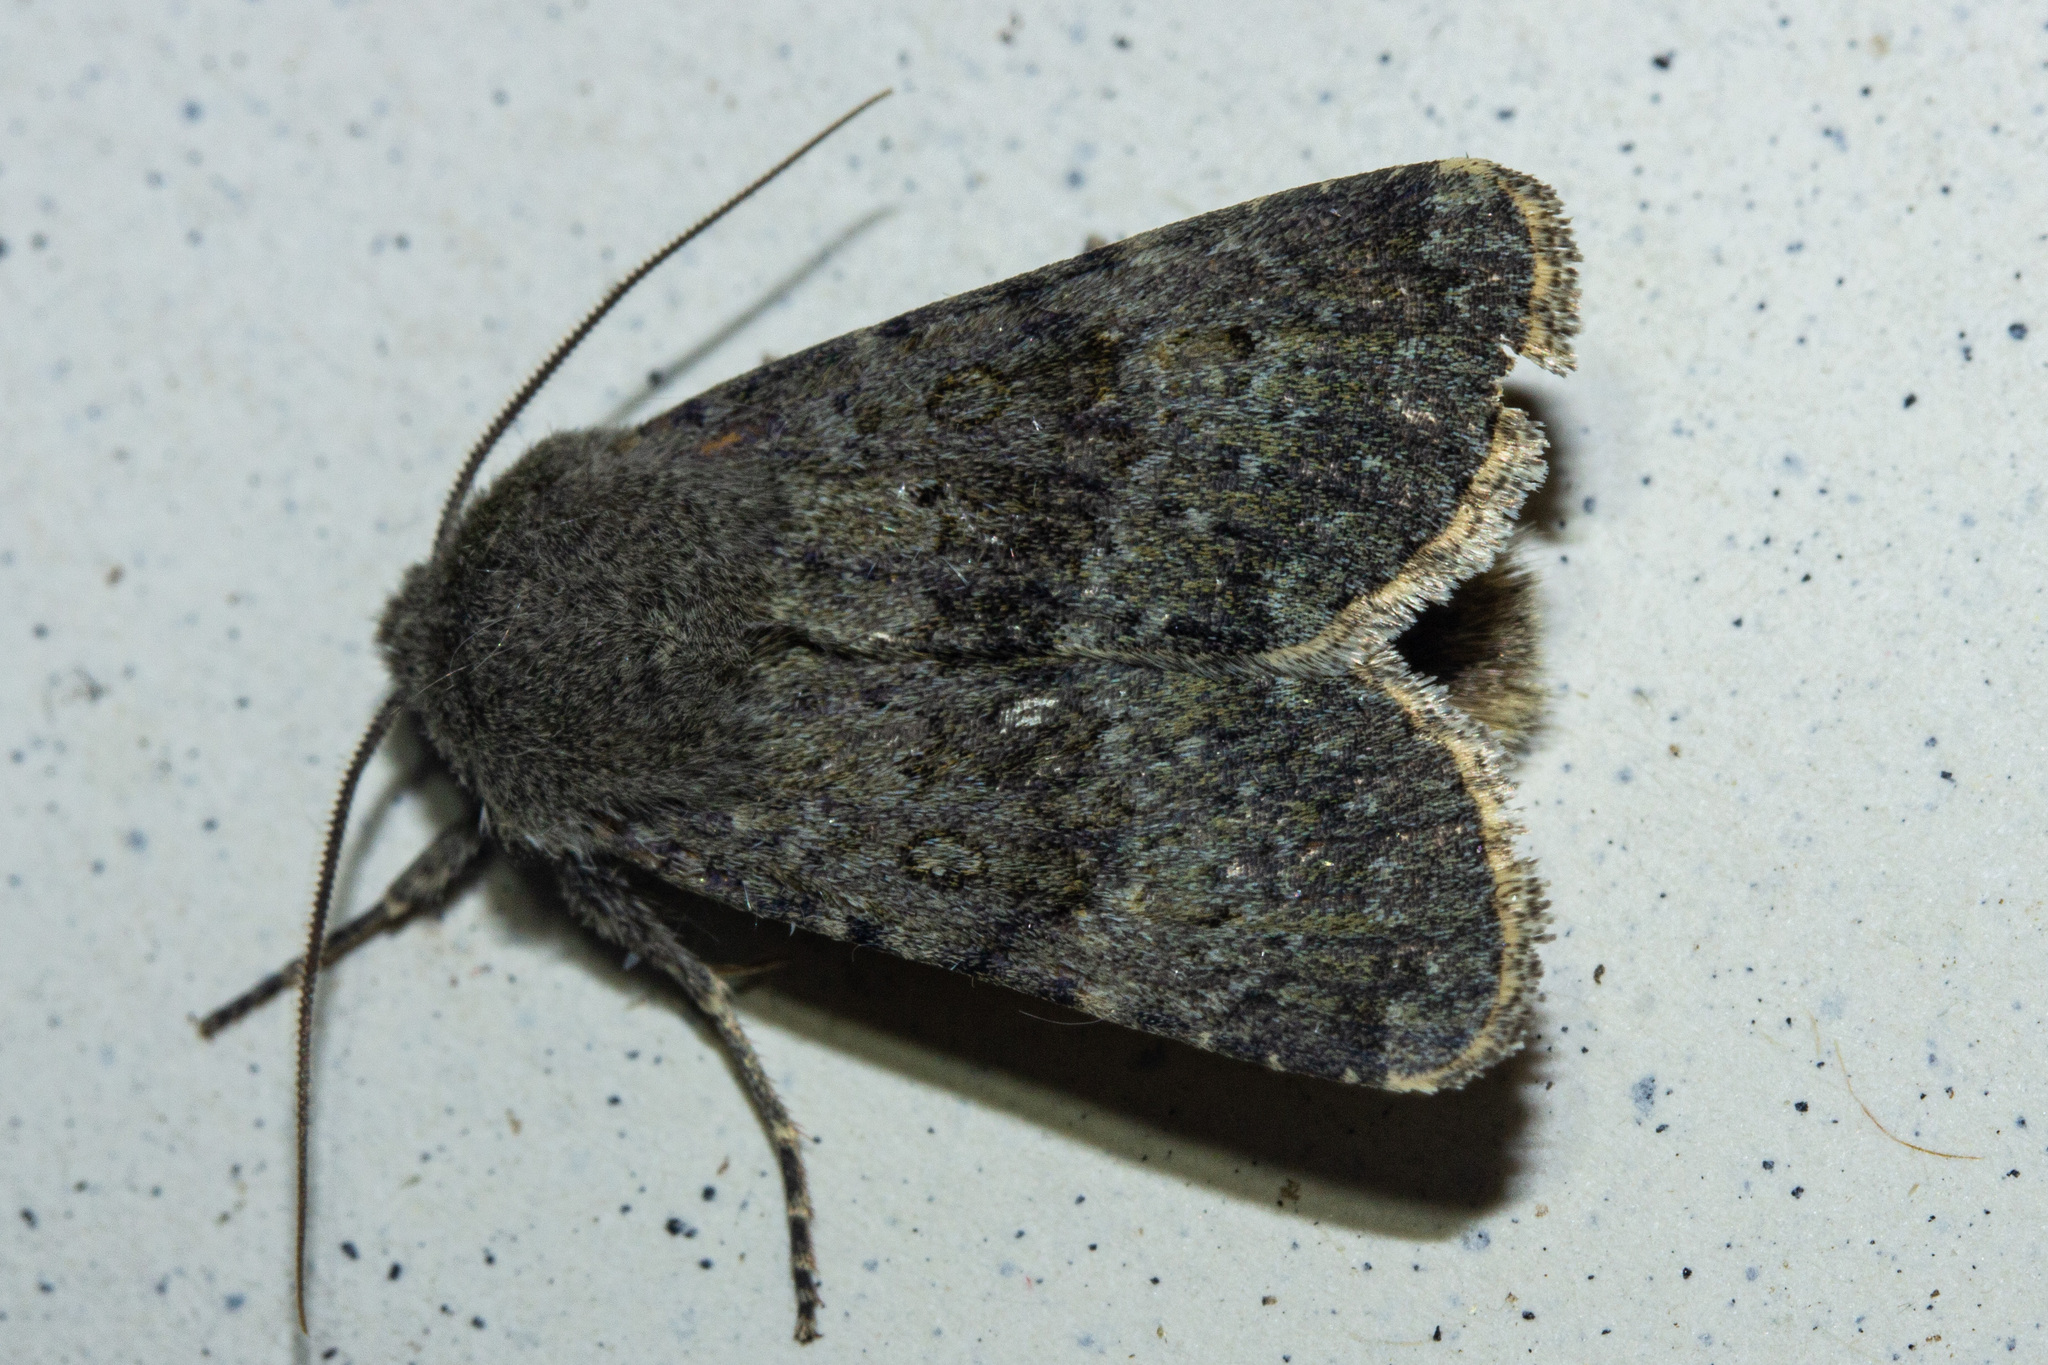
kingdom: Animalia
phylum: Arthropoda
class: Insecta
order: Lepidoptera
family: Noctuidae
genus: Ichneutica
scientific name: Ichneutica moderata
